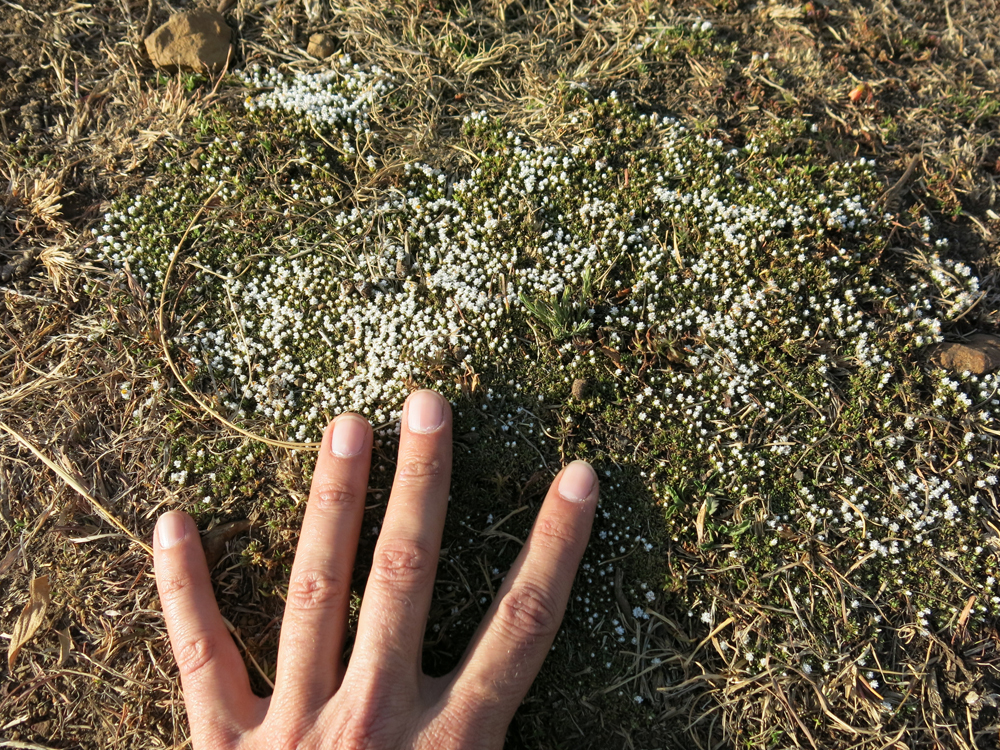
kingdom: Plantae
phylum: Tracheophyta
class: Magnoliopsida
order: Asterales
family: Asteraceae
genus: Helichrysum
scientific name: Helichrysum caespititium
